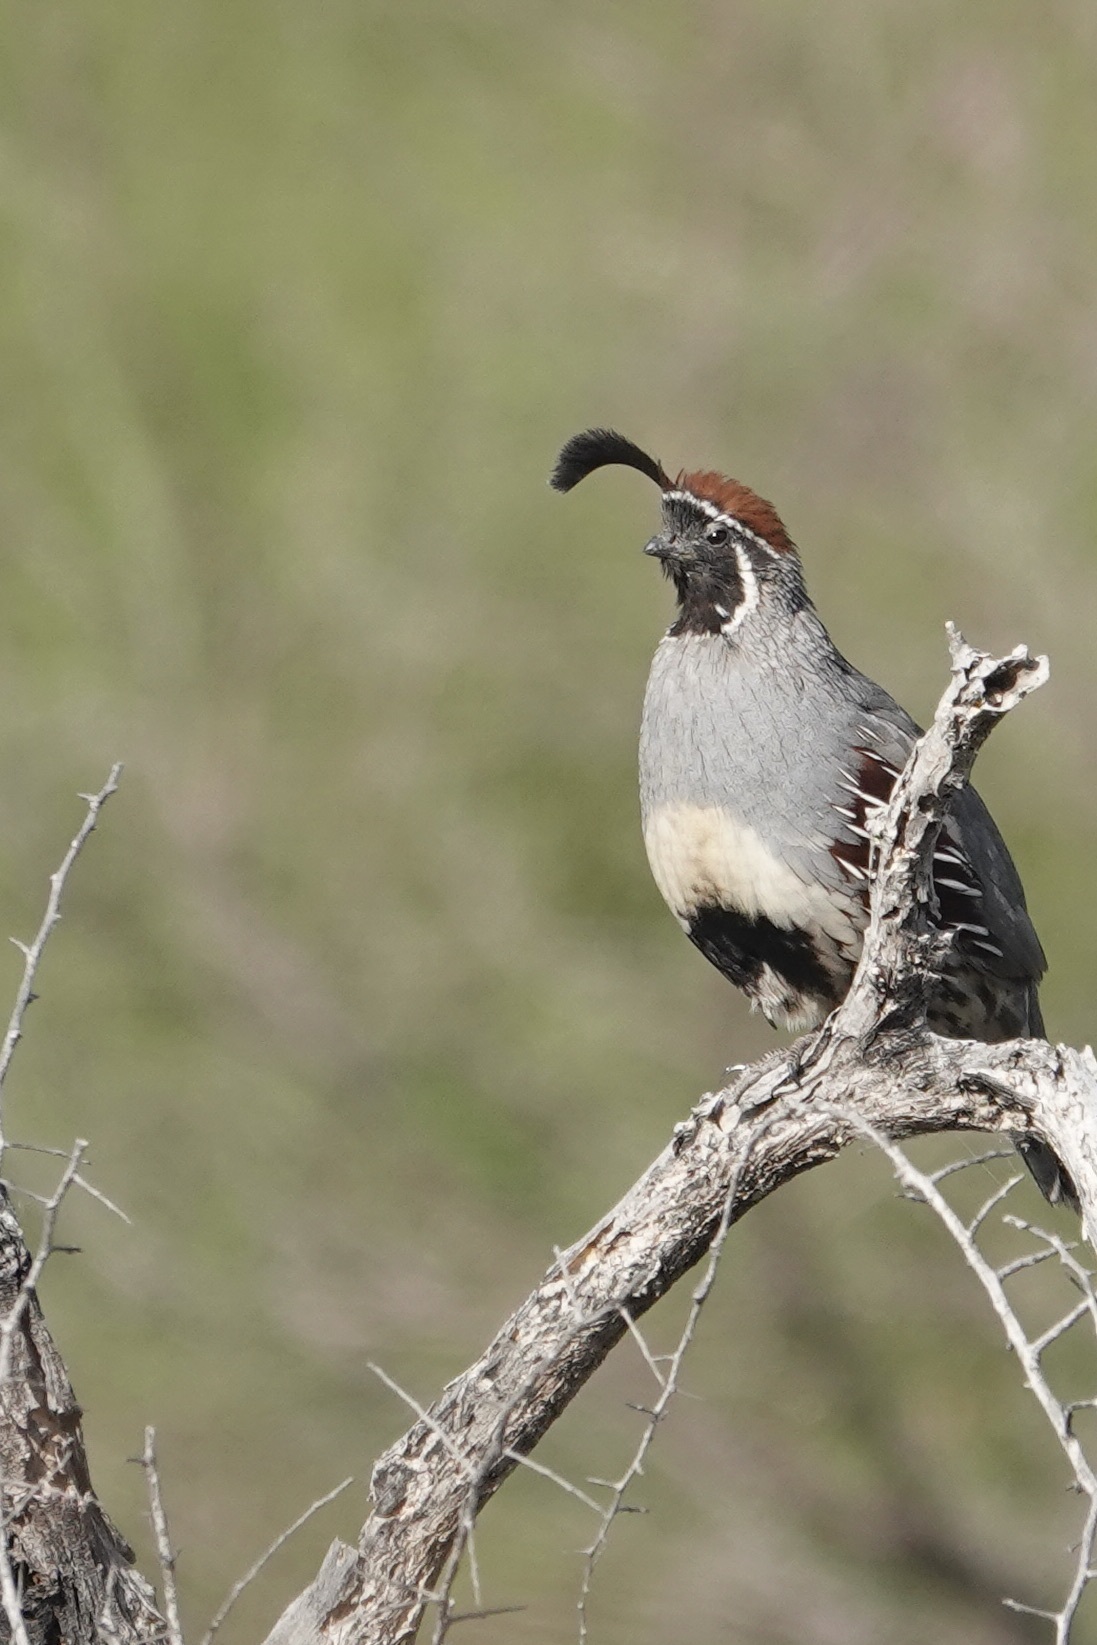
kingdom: Animalia
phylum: Chordata
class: Aves
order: Galliformes
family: Odontophoridae
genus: Callipepla
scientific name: Callipepla gambelii
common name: Gambel's quail
